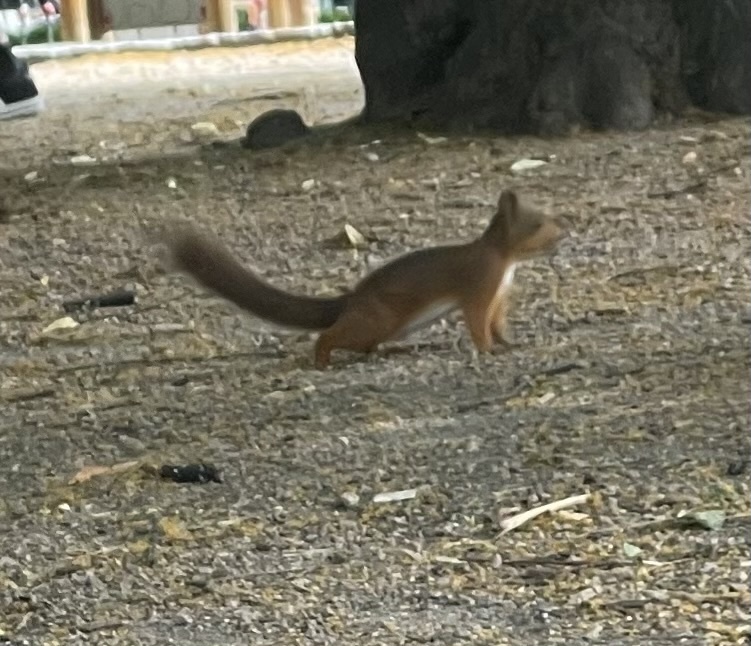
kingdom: Animalia
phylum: Chordata
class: Mammalia
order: Rodentia
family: Sciuridae
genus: Sciurus
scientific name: Sciurus vulgaris
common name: Eurasian red squirrel
